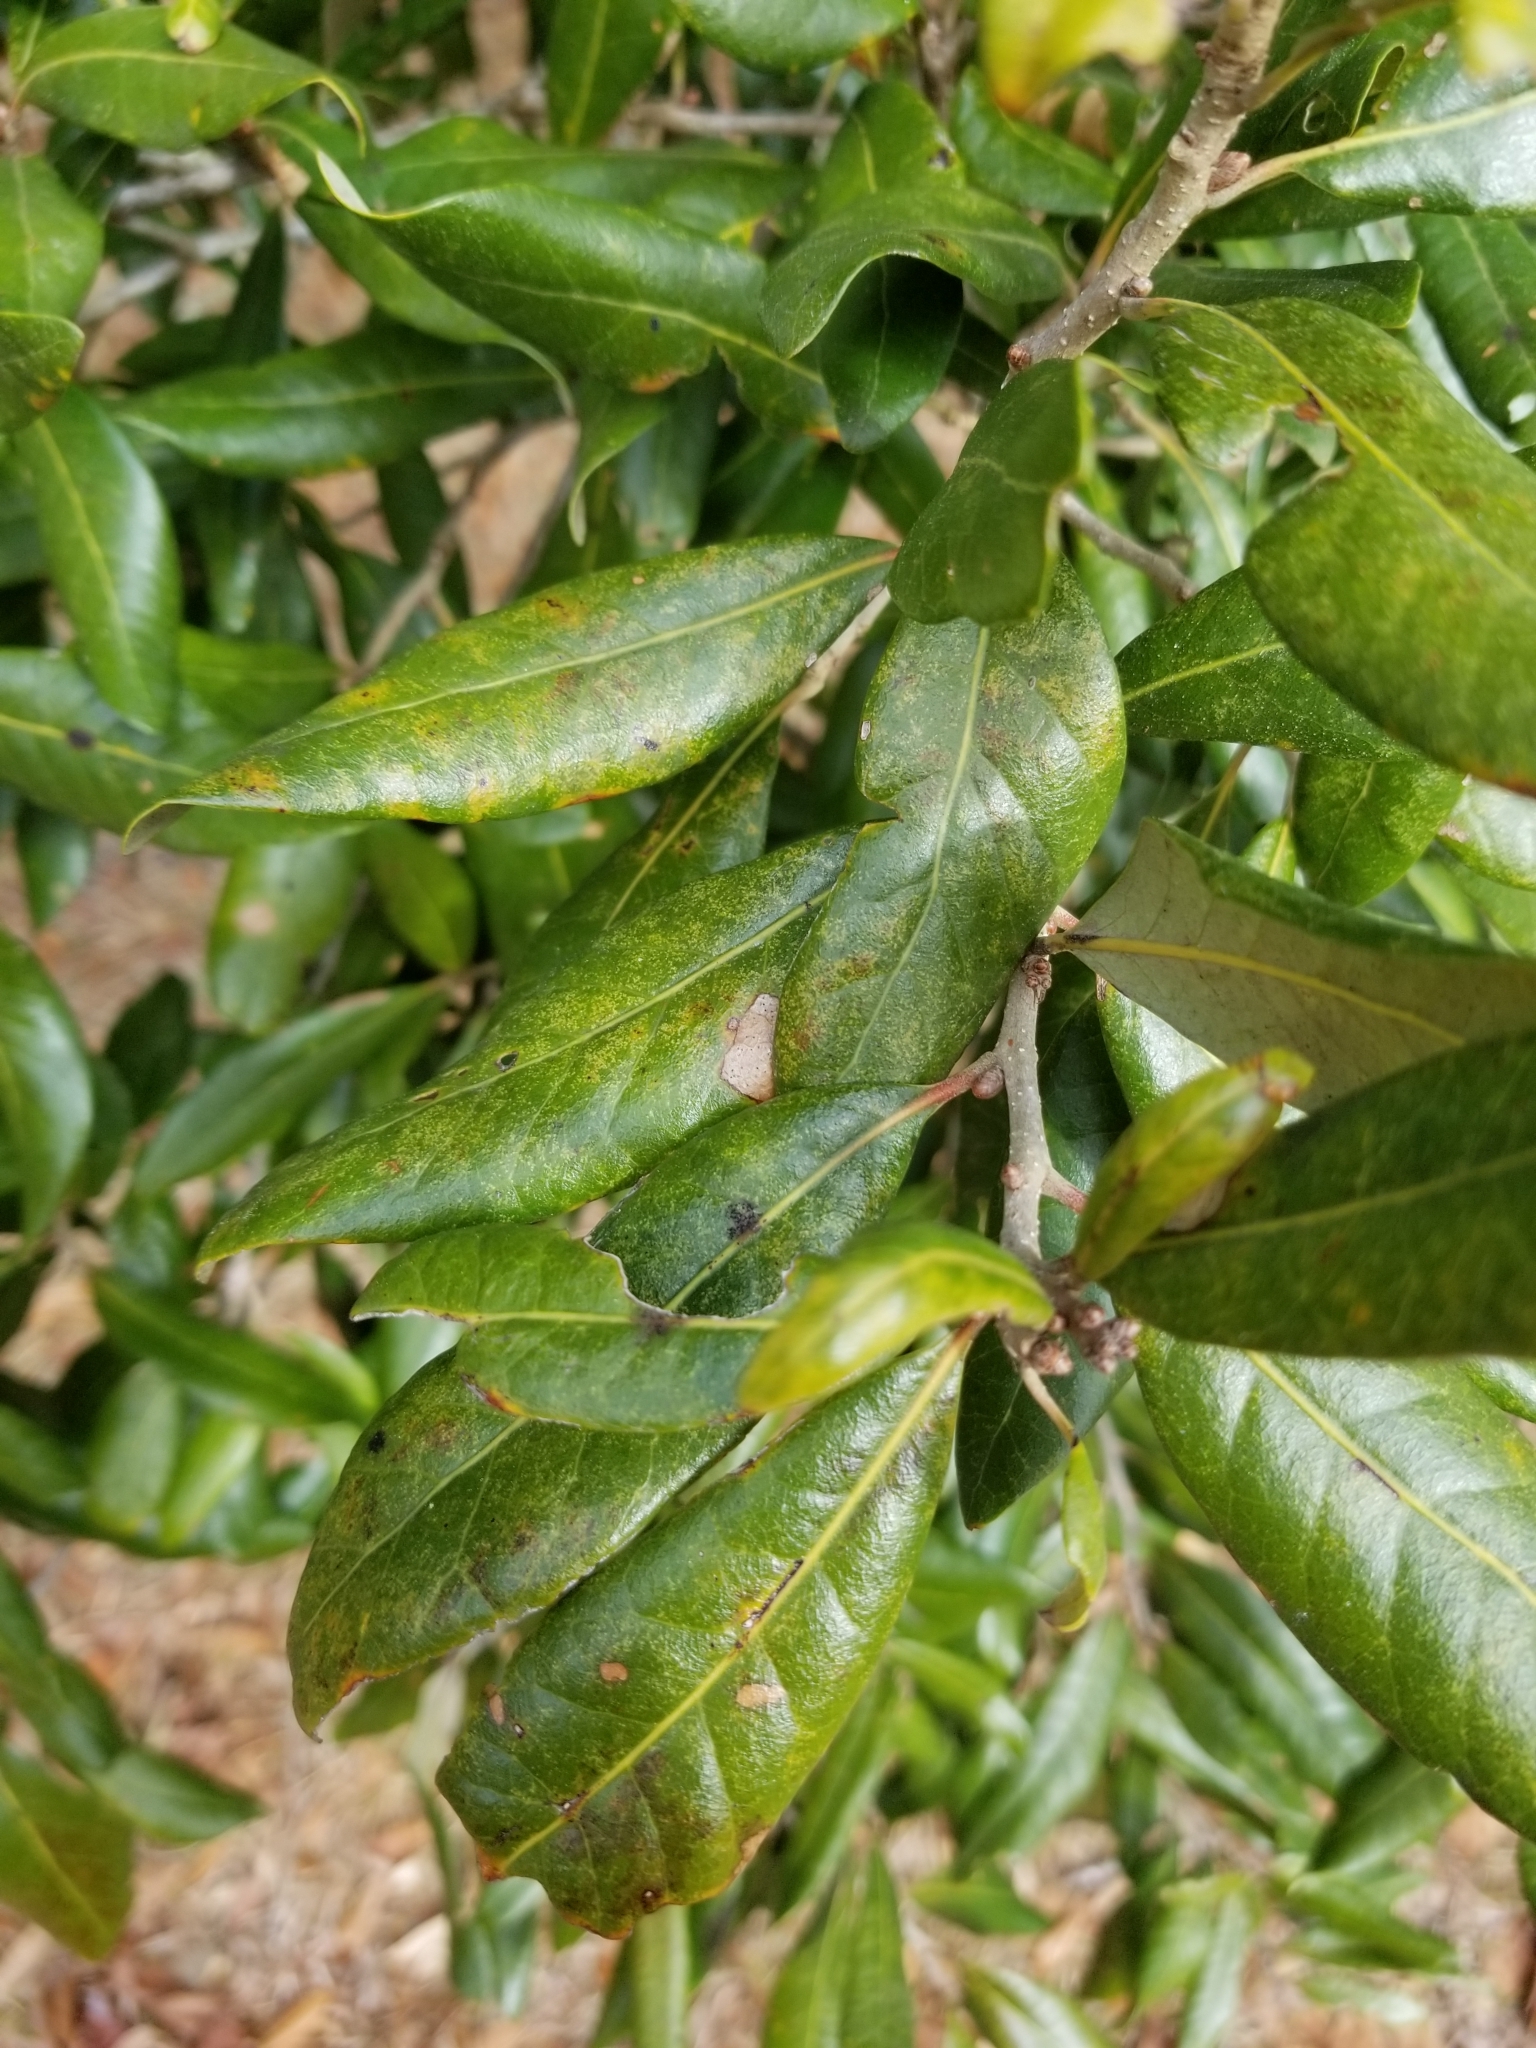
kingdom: Plantae
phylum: Tracheophyta
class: Magnoliopsida
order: Fagales
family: Fagaceae
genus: Quercus
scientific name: Quercus virginiana
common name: Southern live oak
